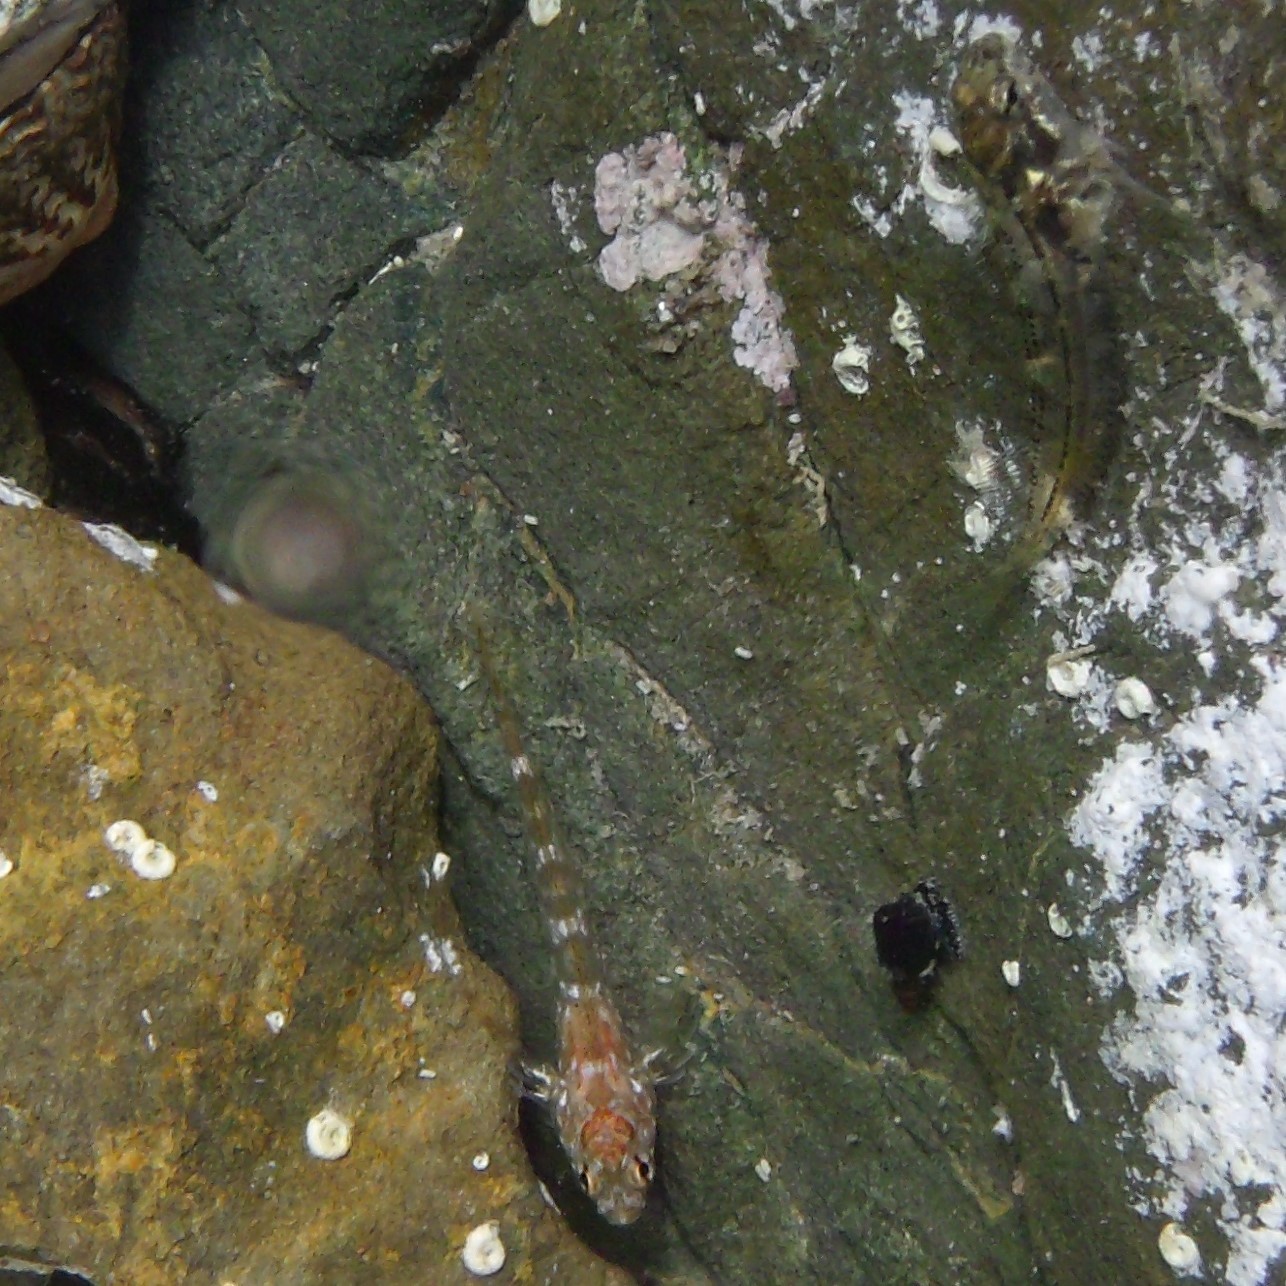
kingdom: Animalia
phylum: Chordata
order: Perciformes
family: Tripterygiidae
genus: Bellapiscis
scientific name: Bellapiscis medius
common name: Twister
